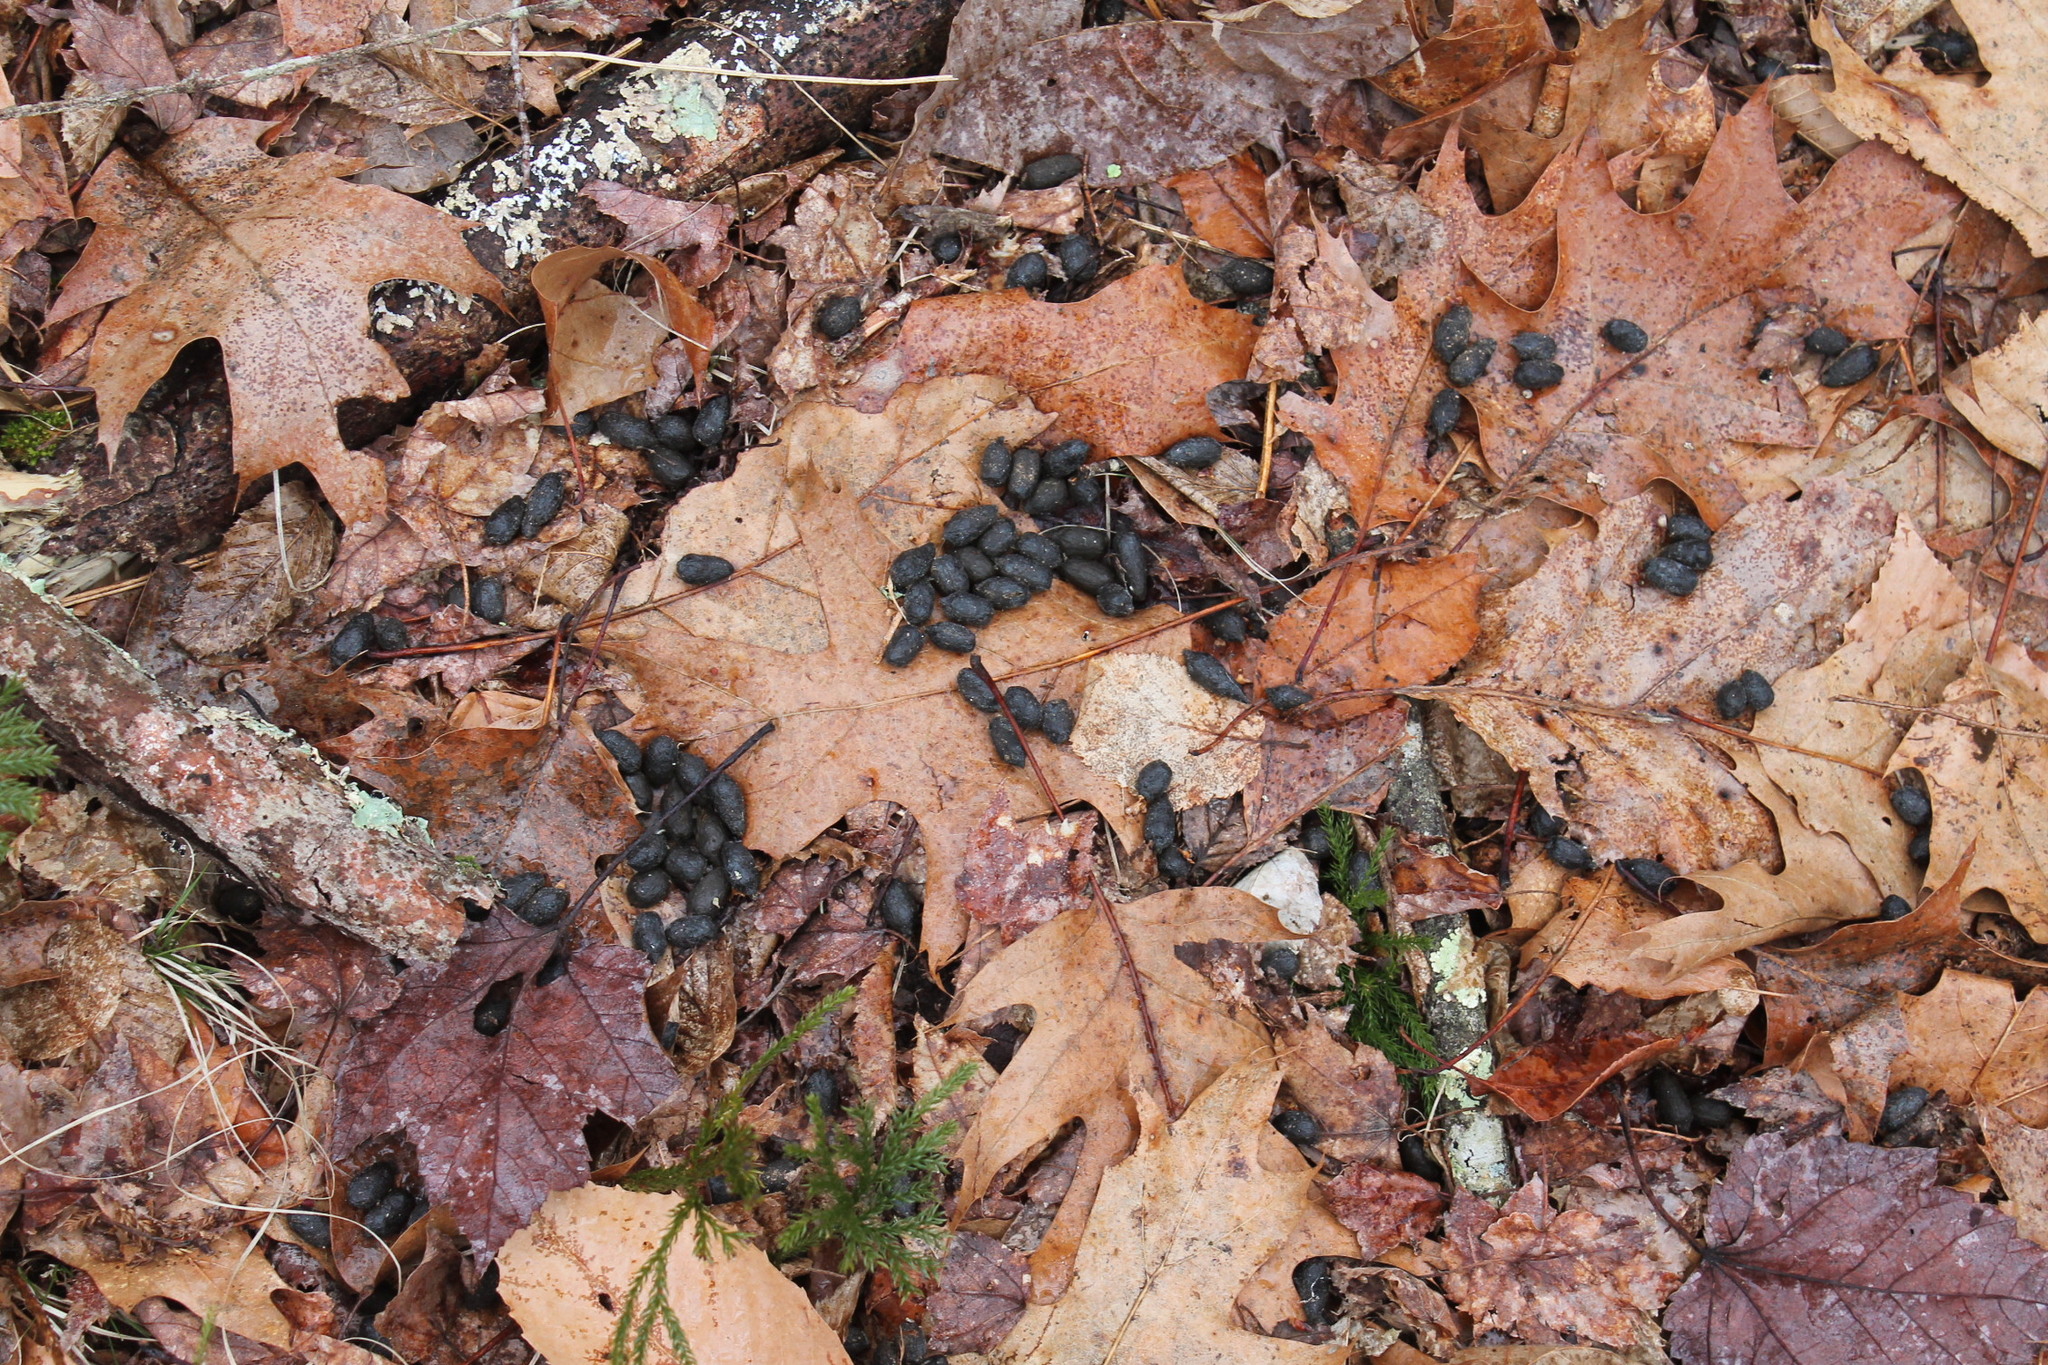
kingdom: Animalia
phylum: Chordata
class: Mammalia
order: Artiodactyla
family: Cervidae
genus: Odocoileus
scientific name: Odocoileus virginianus
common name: White-tailed deer
